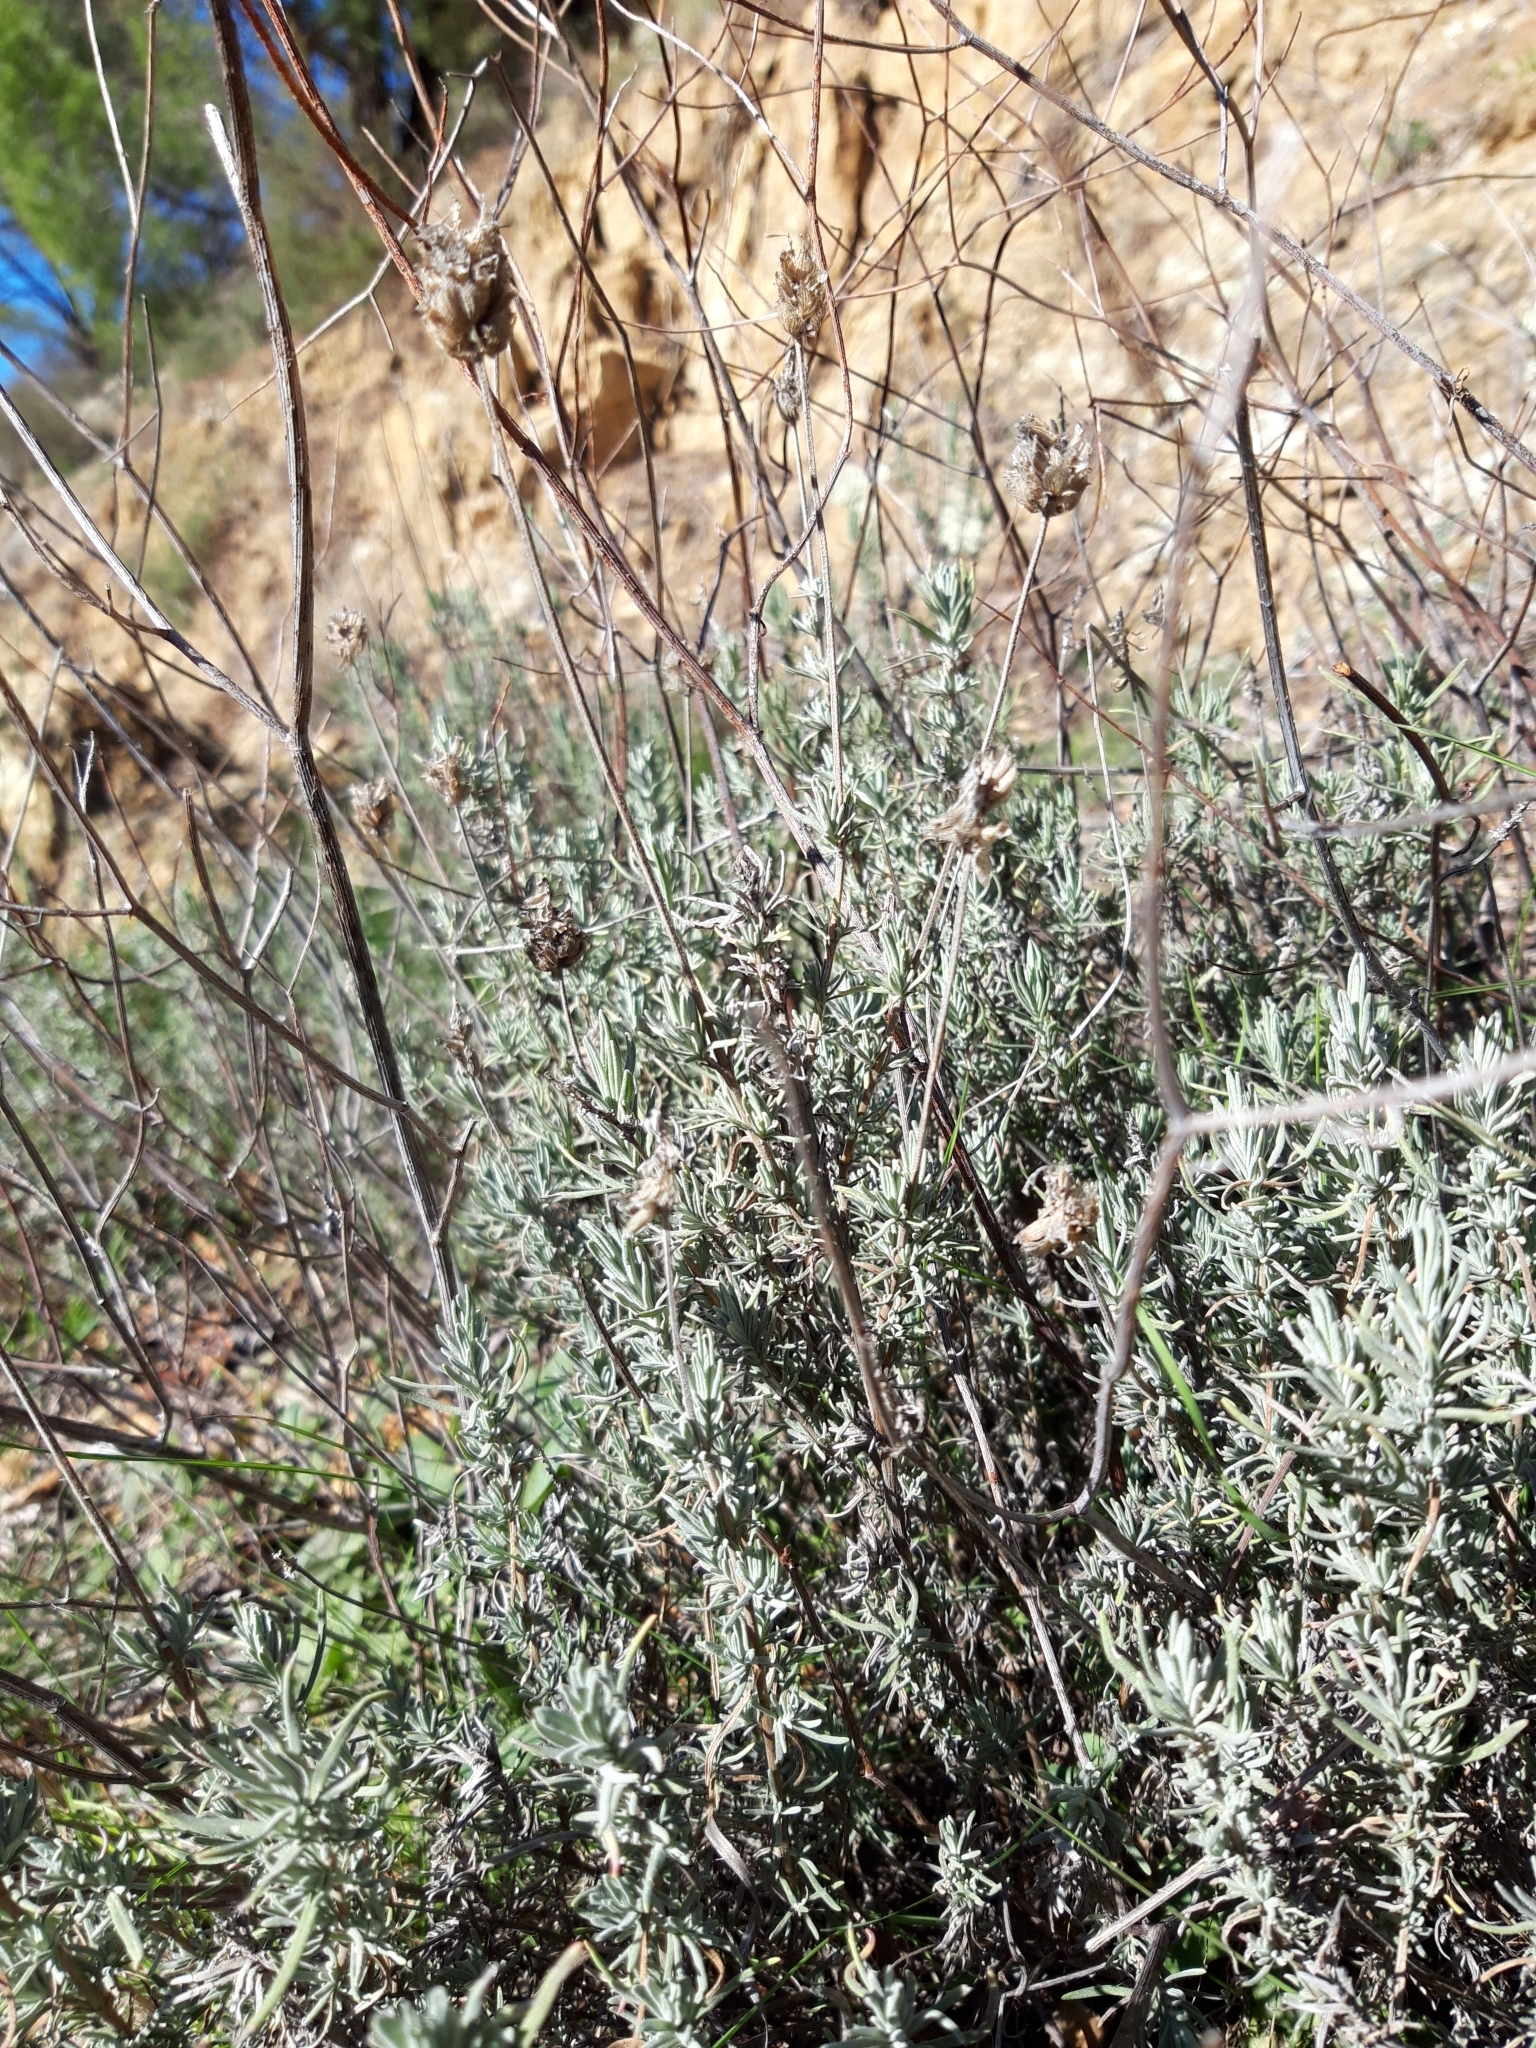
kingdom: Plantae
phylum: Tracheophyta
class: Magnoliopsida
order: Lamiales
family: Lamiaceae
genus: Lavandula
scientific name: Lavandula pedunculata
